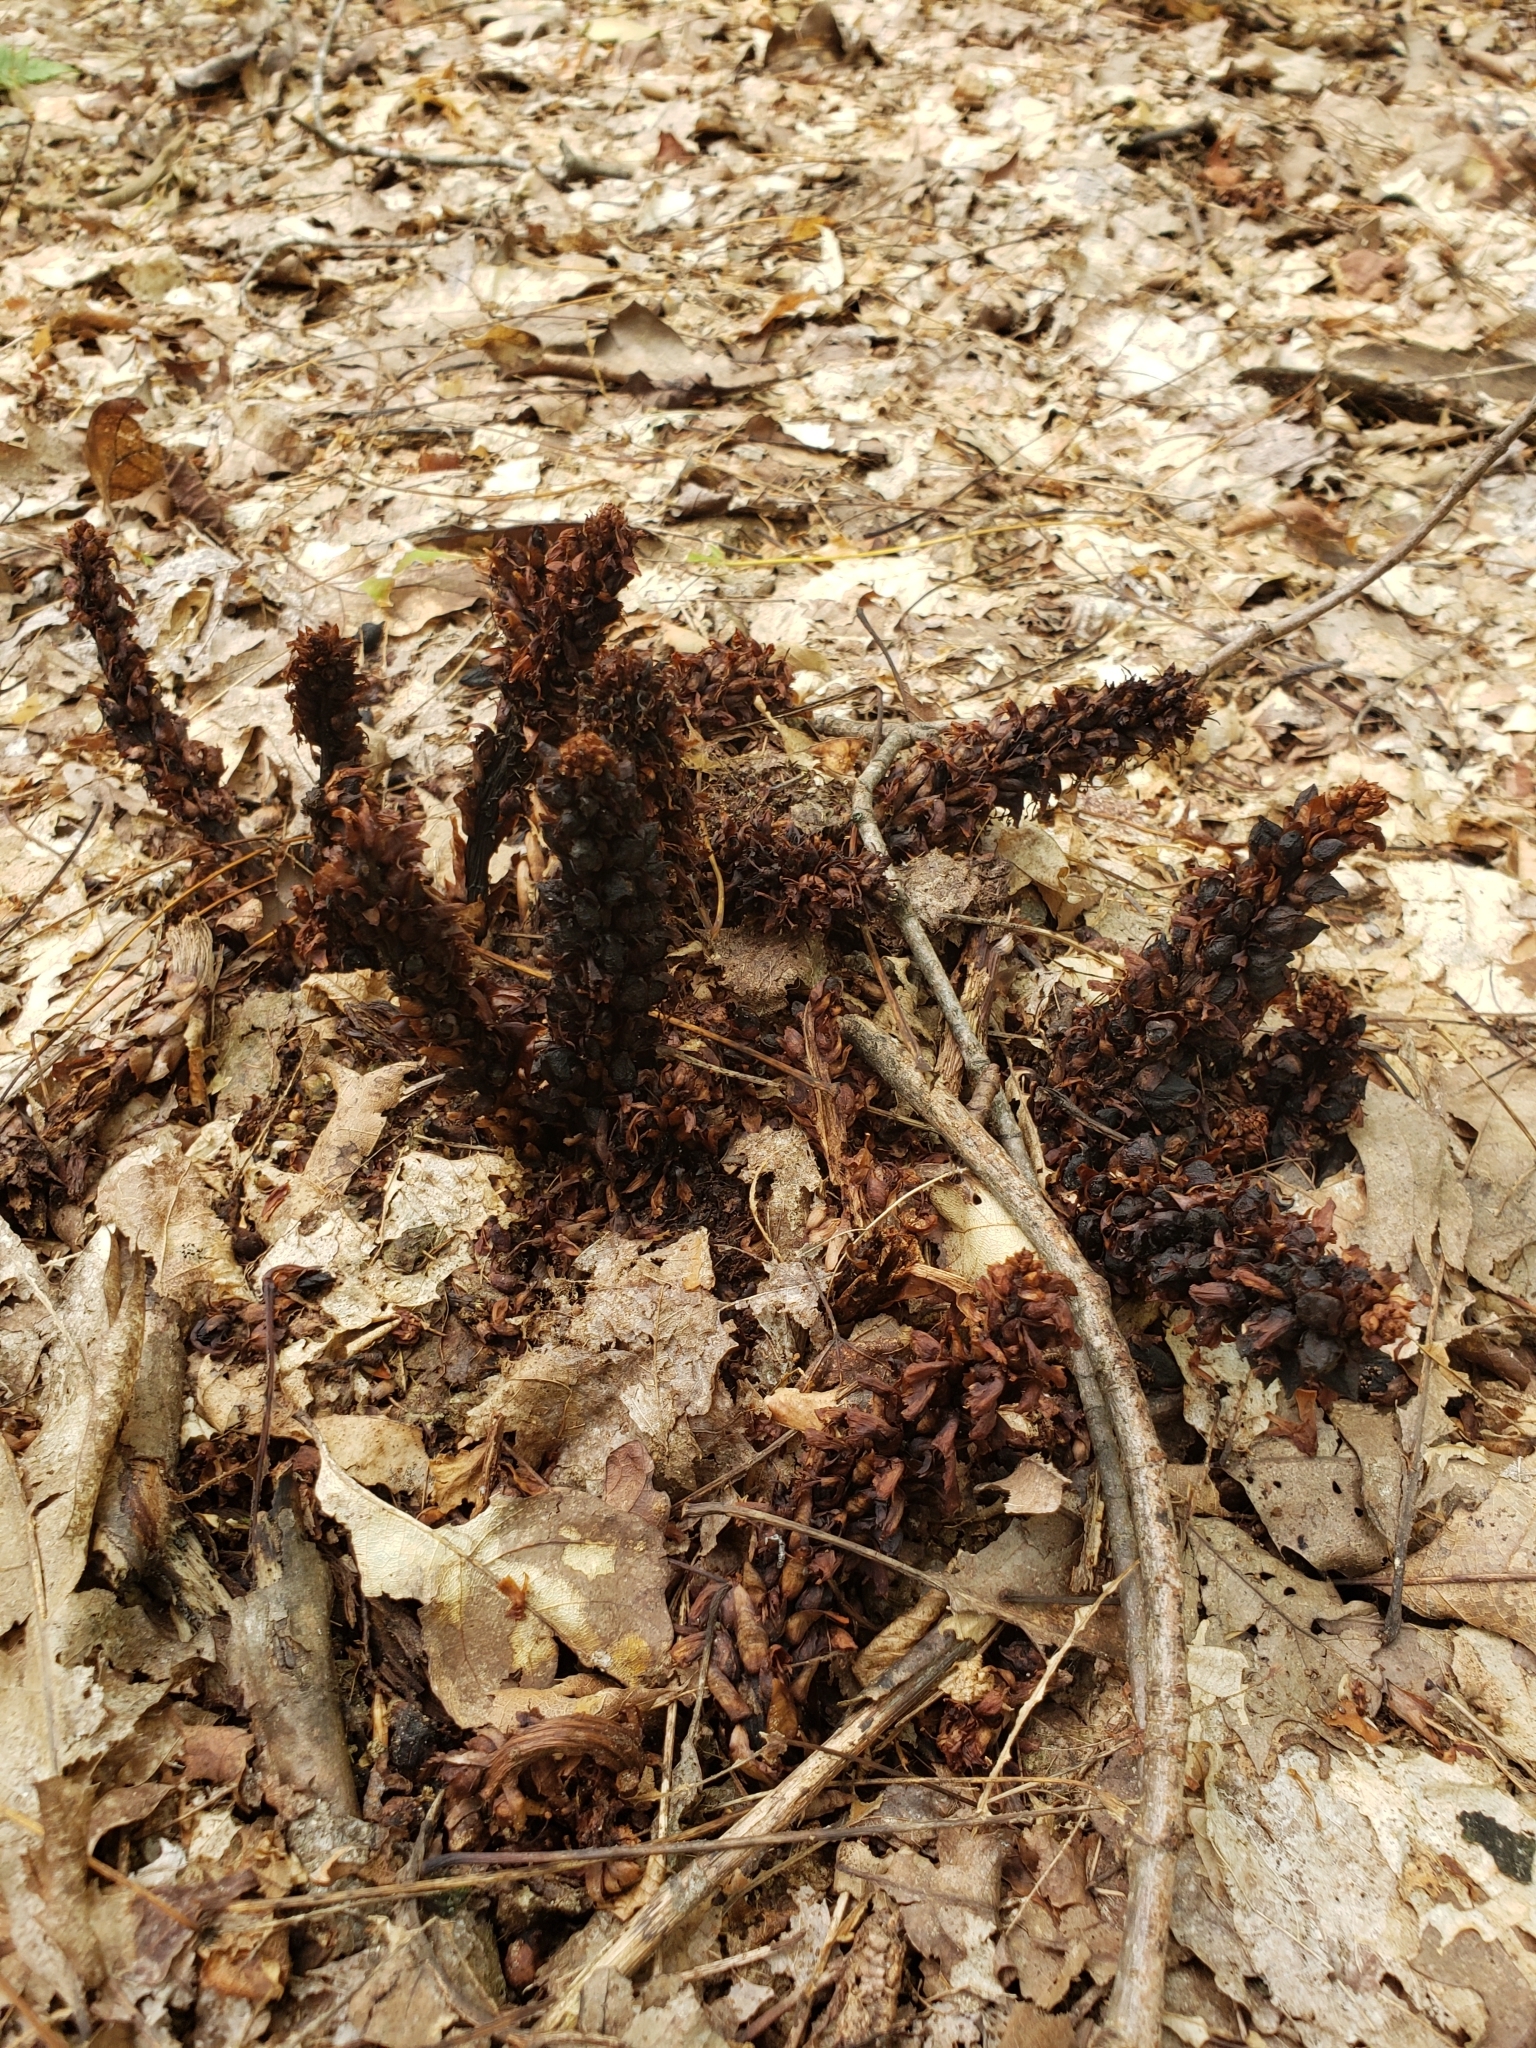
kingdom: Plantae
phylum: Tracheophyta
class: Magnoliopsida
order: Lamiales
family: Orobanchaceae
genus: Conopholis
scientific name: Conopholis americana
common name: American cancer-root
